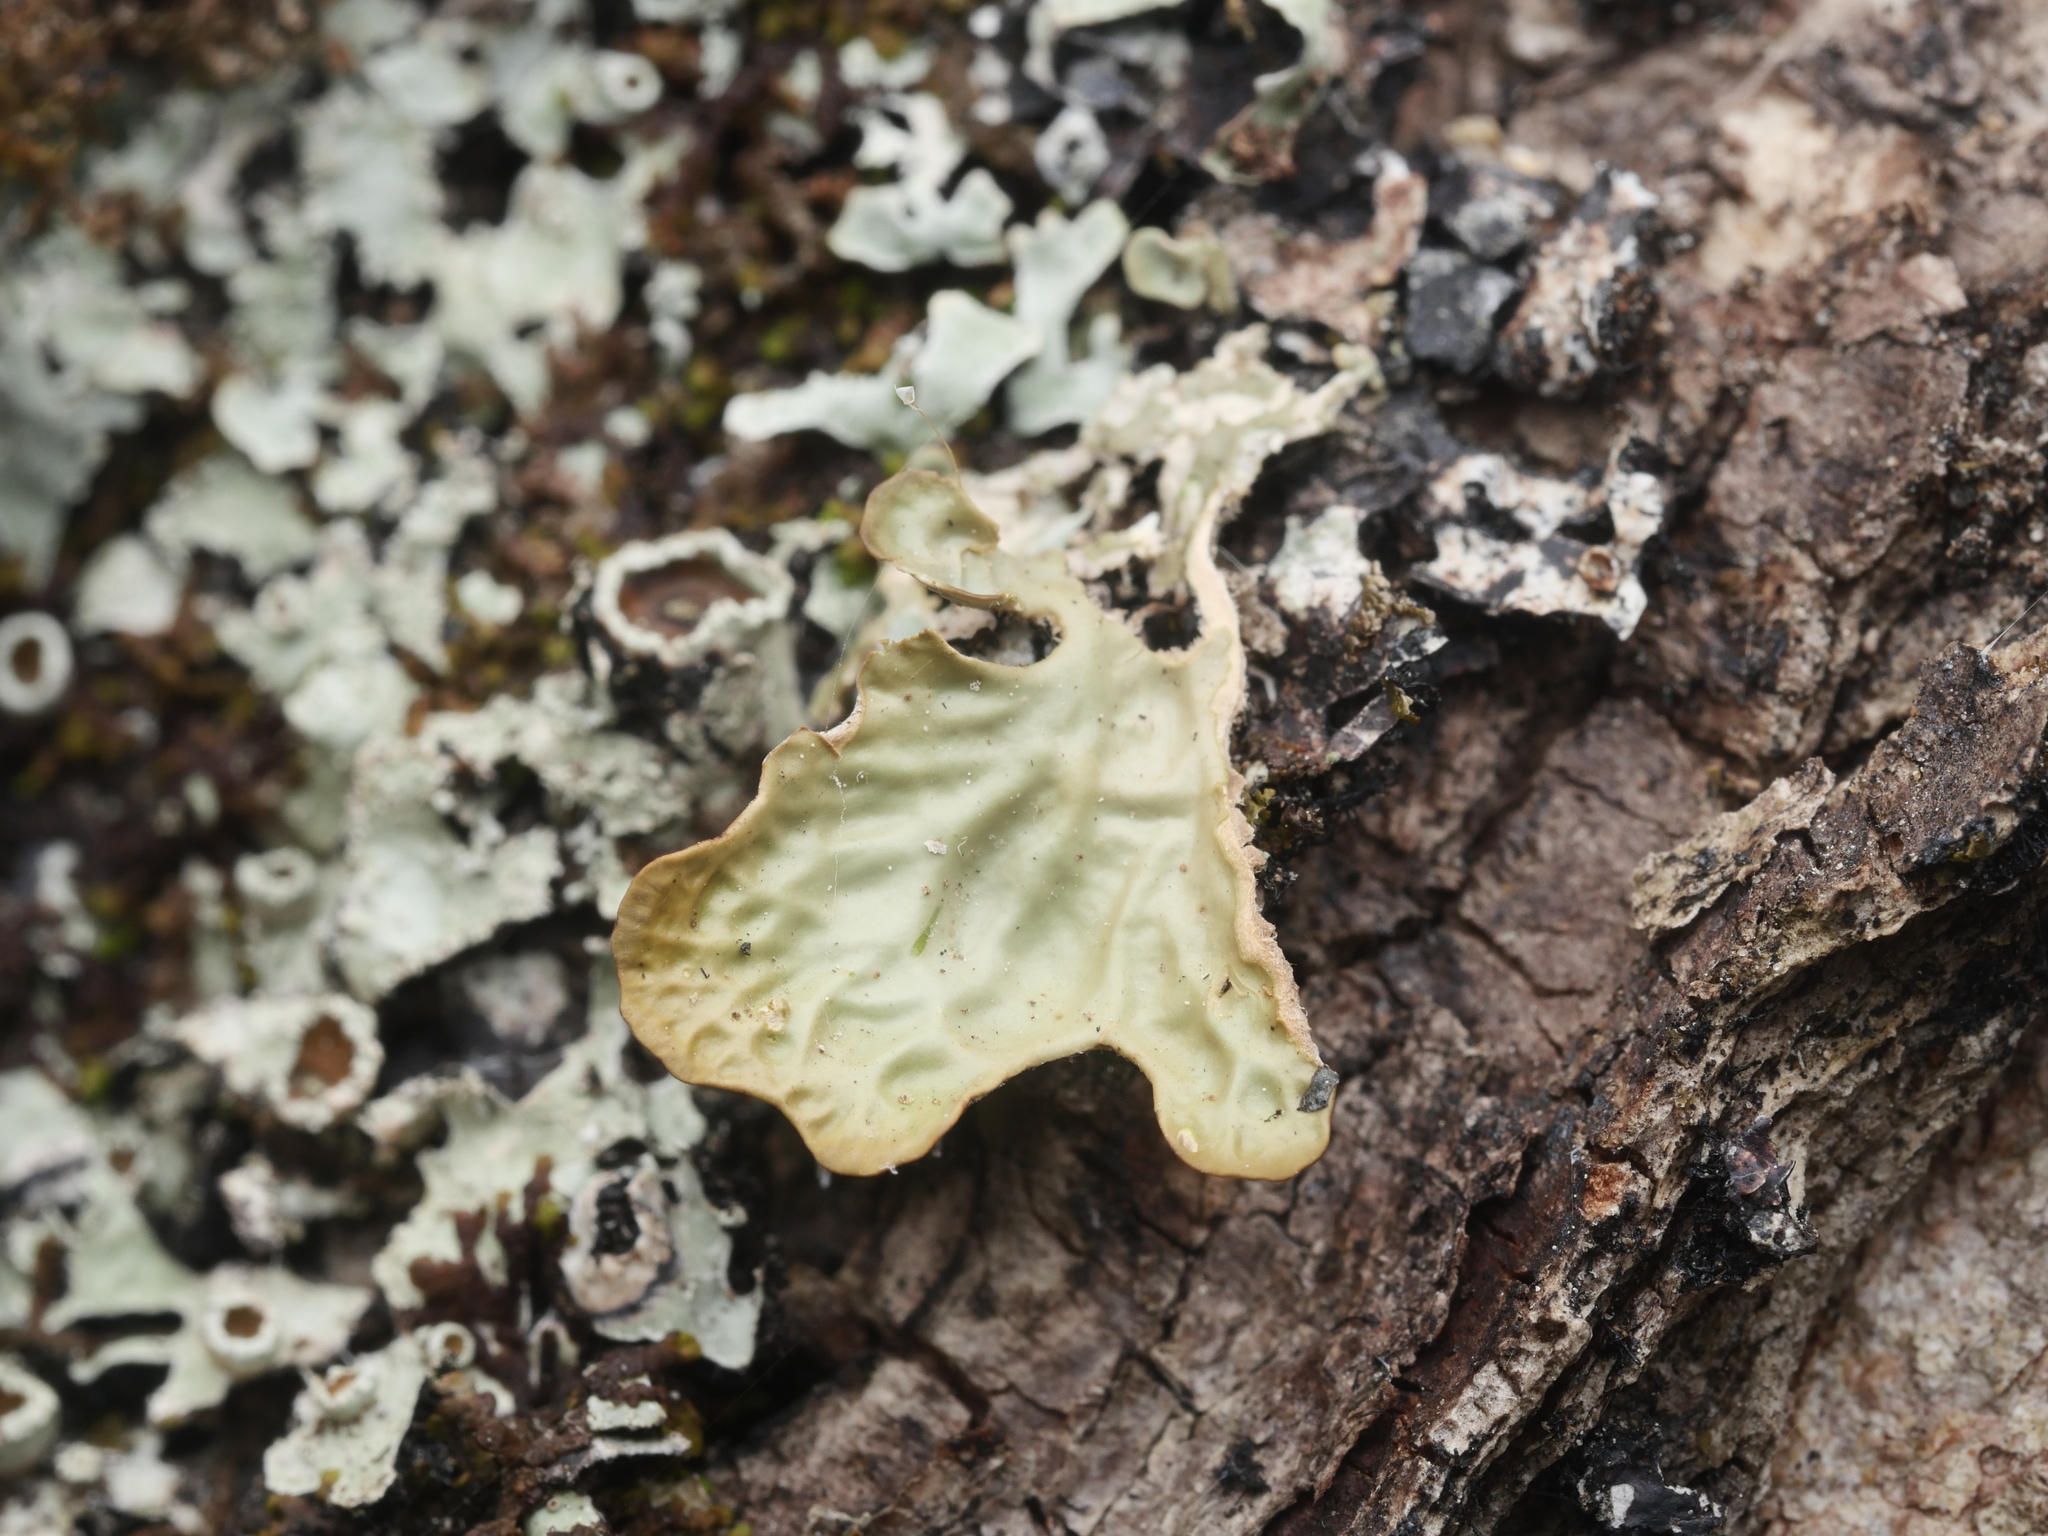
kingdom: Fungi
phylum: Ascomycota
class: Lecanoromycetes
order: Peltigerales
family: Lobariaceae
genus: Lobaria
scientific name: Lobaria pulmonaria
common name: Lungwort
